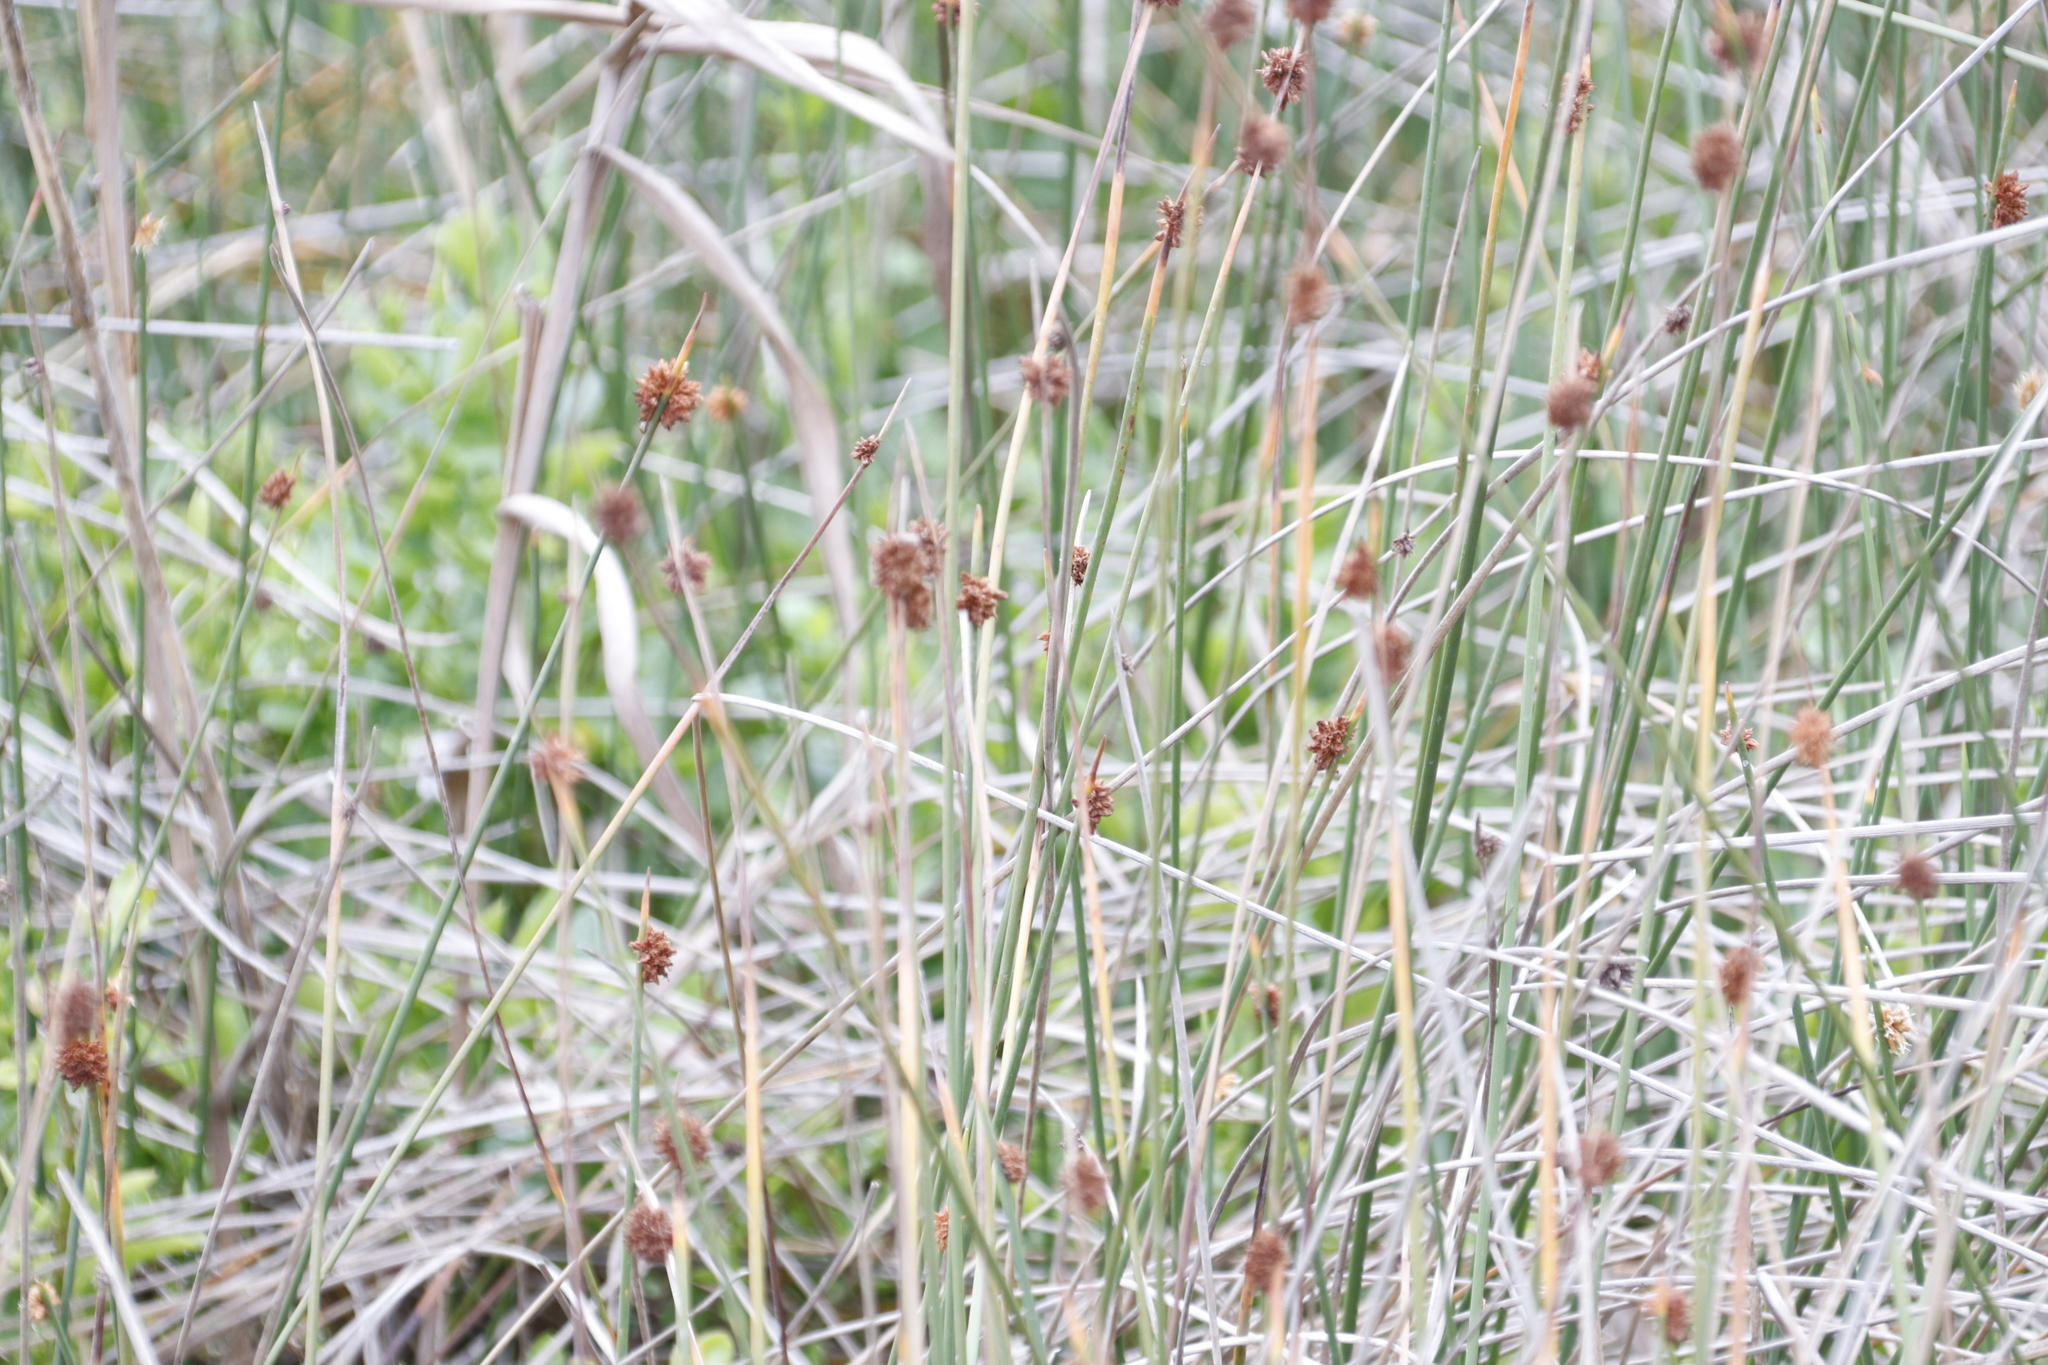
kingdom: Plantae
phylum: Tracheophyta
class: Liliopsida
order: Poales
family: Cyperaceae
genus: Ficinia
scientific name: Ficinia nodosa
